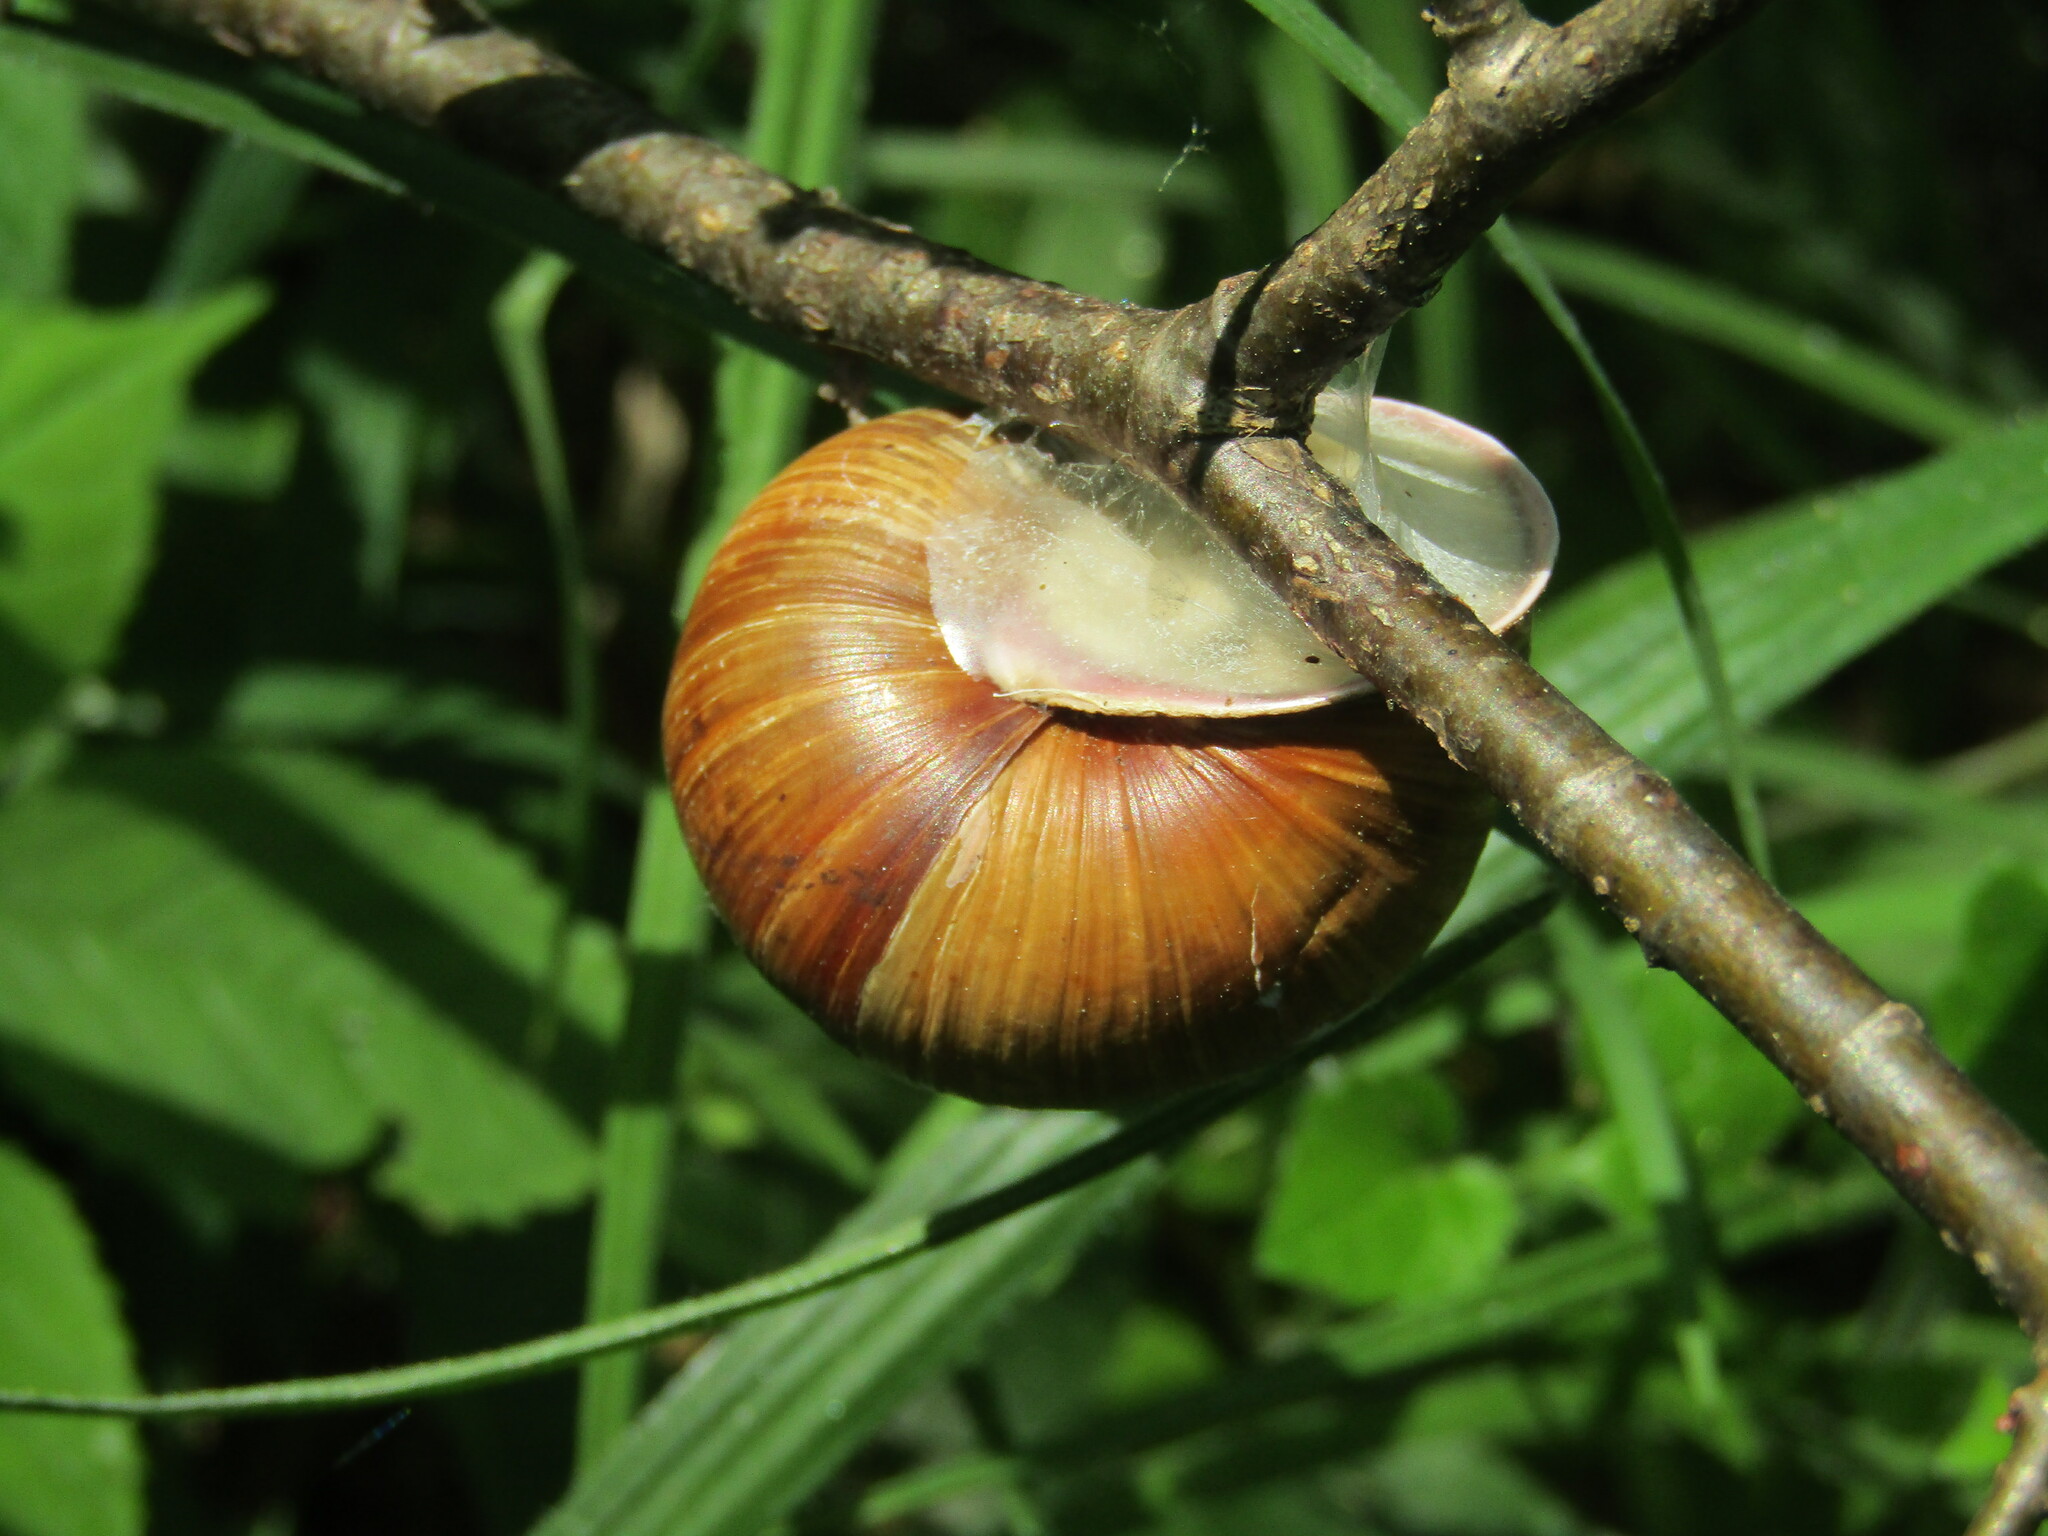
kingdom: Animalia
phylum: Mollusca
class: Gastropoda
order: Stylommatophora
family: Helicidae
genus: Helix
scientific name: Helix pomatia
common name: Roman snail
